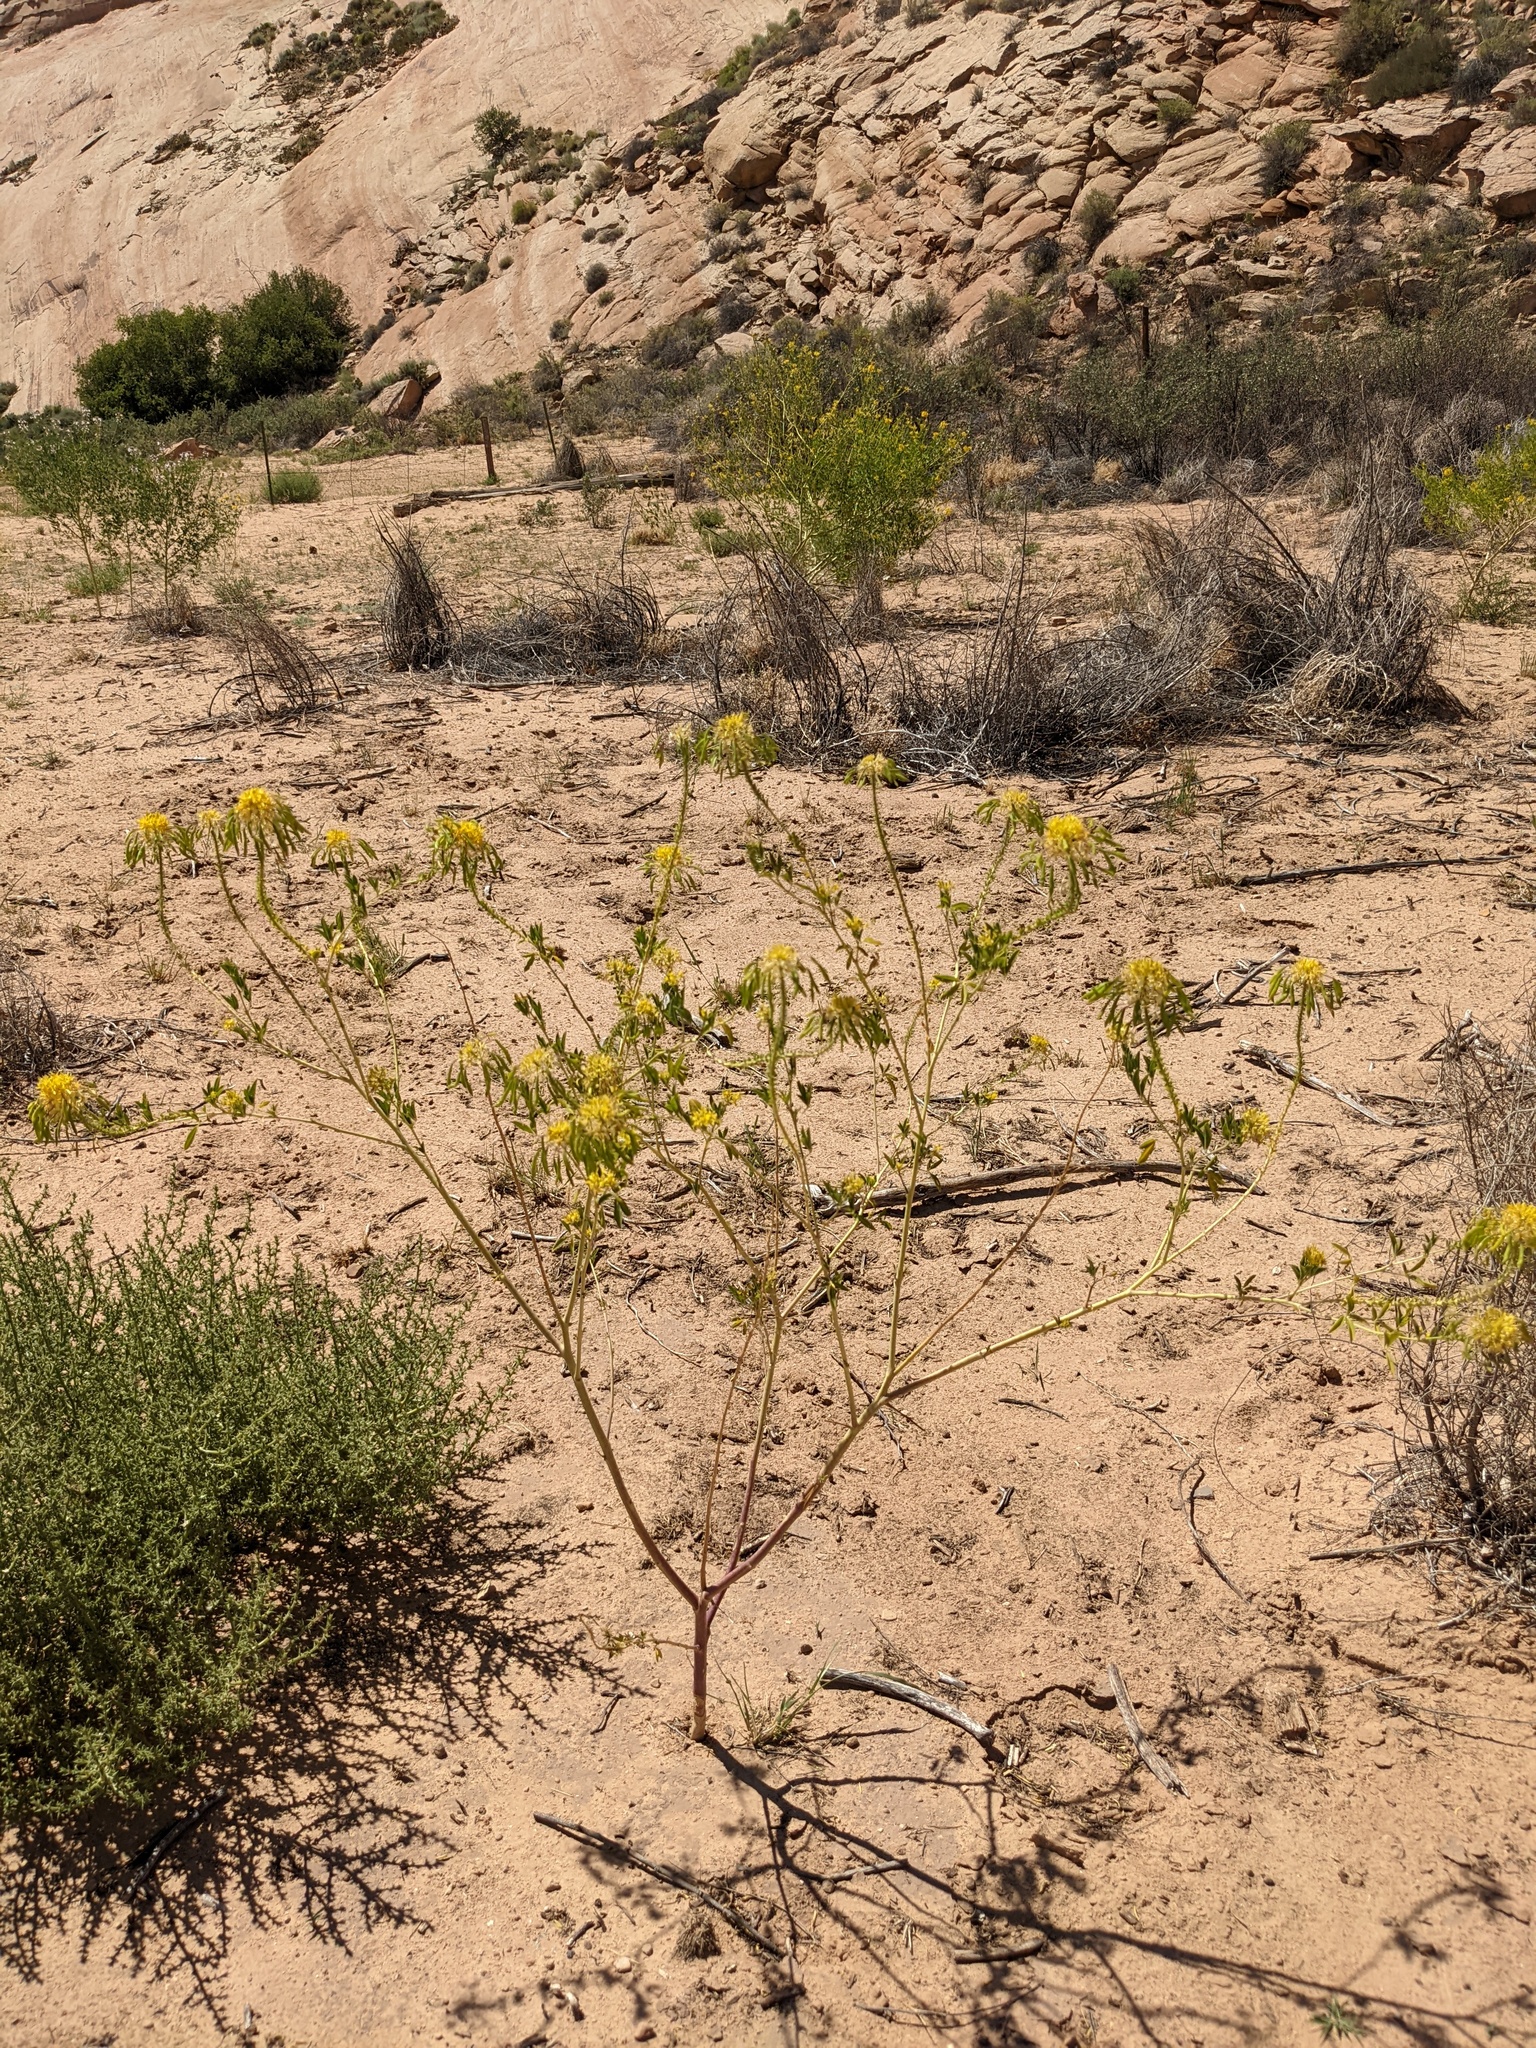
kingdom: Plantae
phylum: Tracheophyta
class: Magnoliopsida
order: Brassicales
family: Cleomaceae
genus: Cleomella
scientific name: Cleomella lutea
